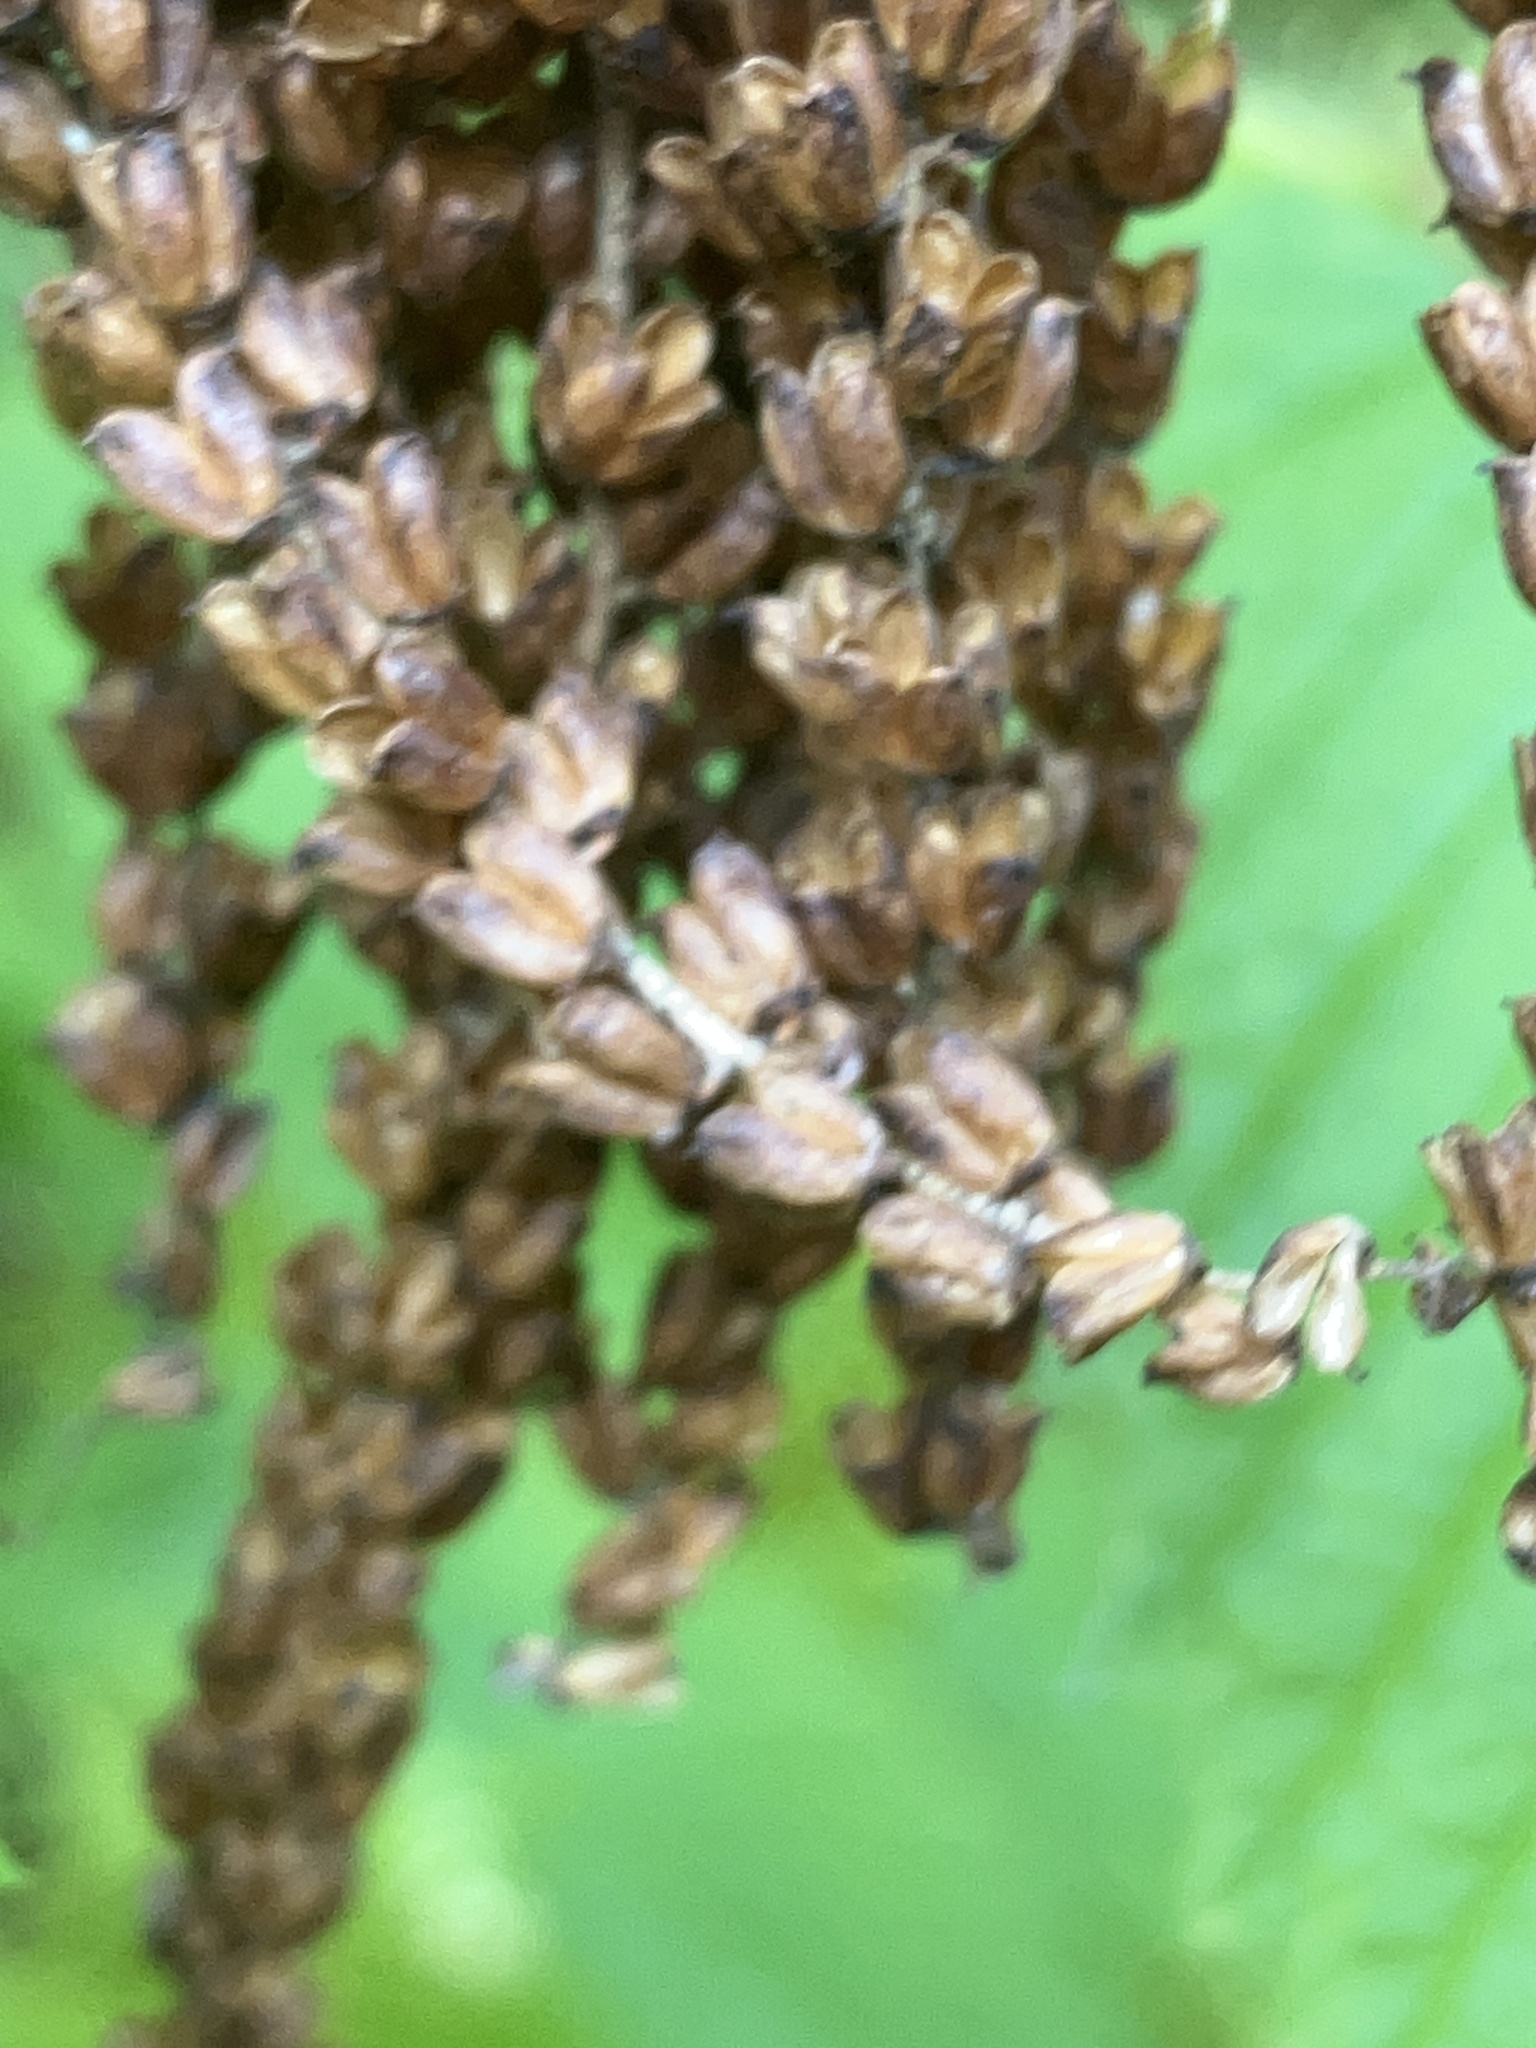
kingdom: Plantae
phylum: Tracheophyta
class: Magnoliopsida
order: Rosales
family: Rosaceae
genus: Aruncus
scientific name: Aruncus dioicus
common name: Buck's-beard
